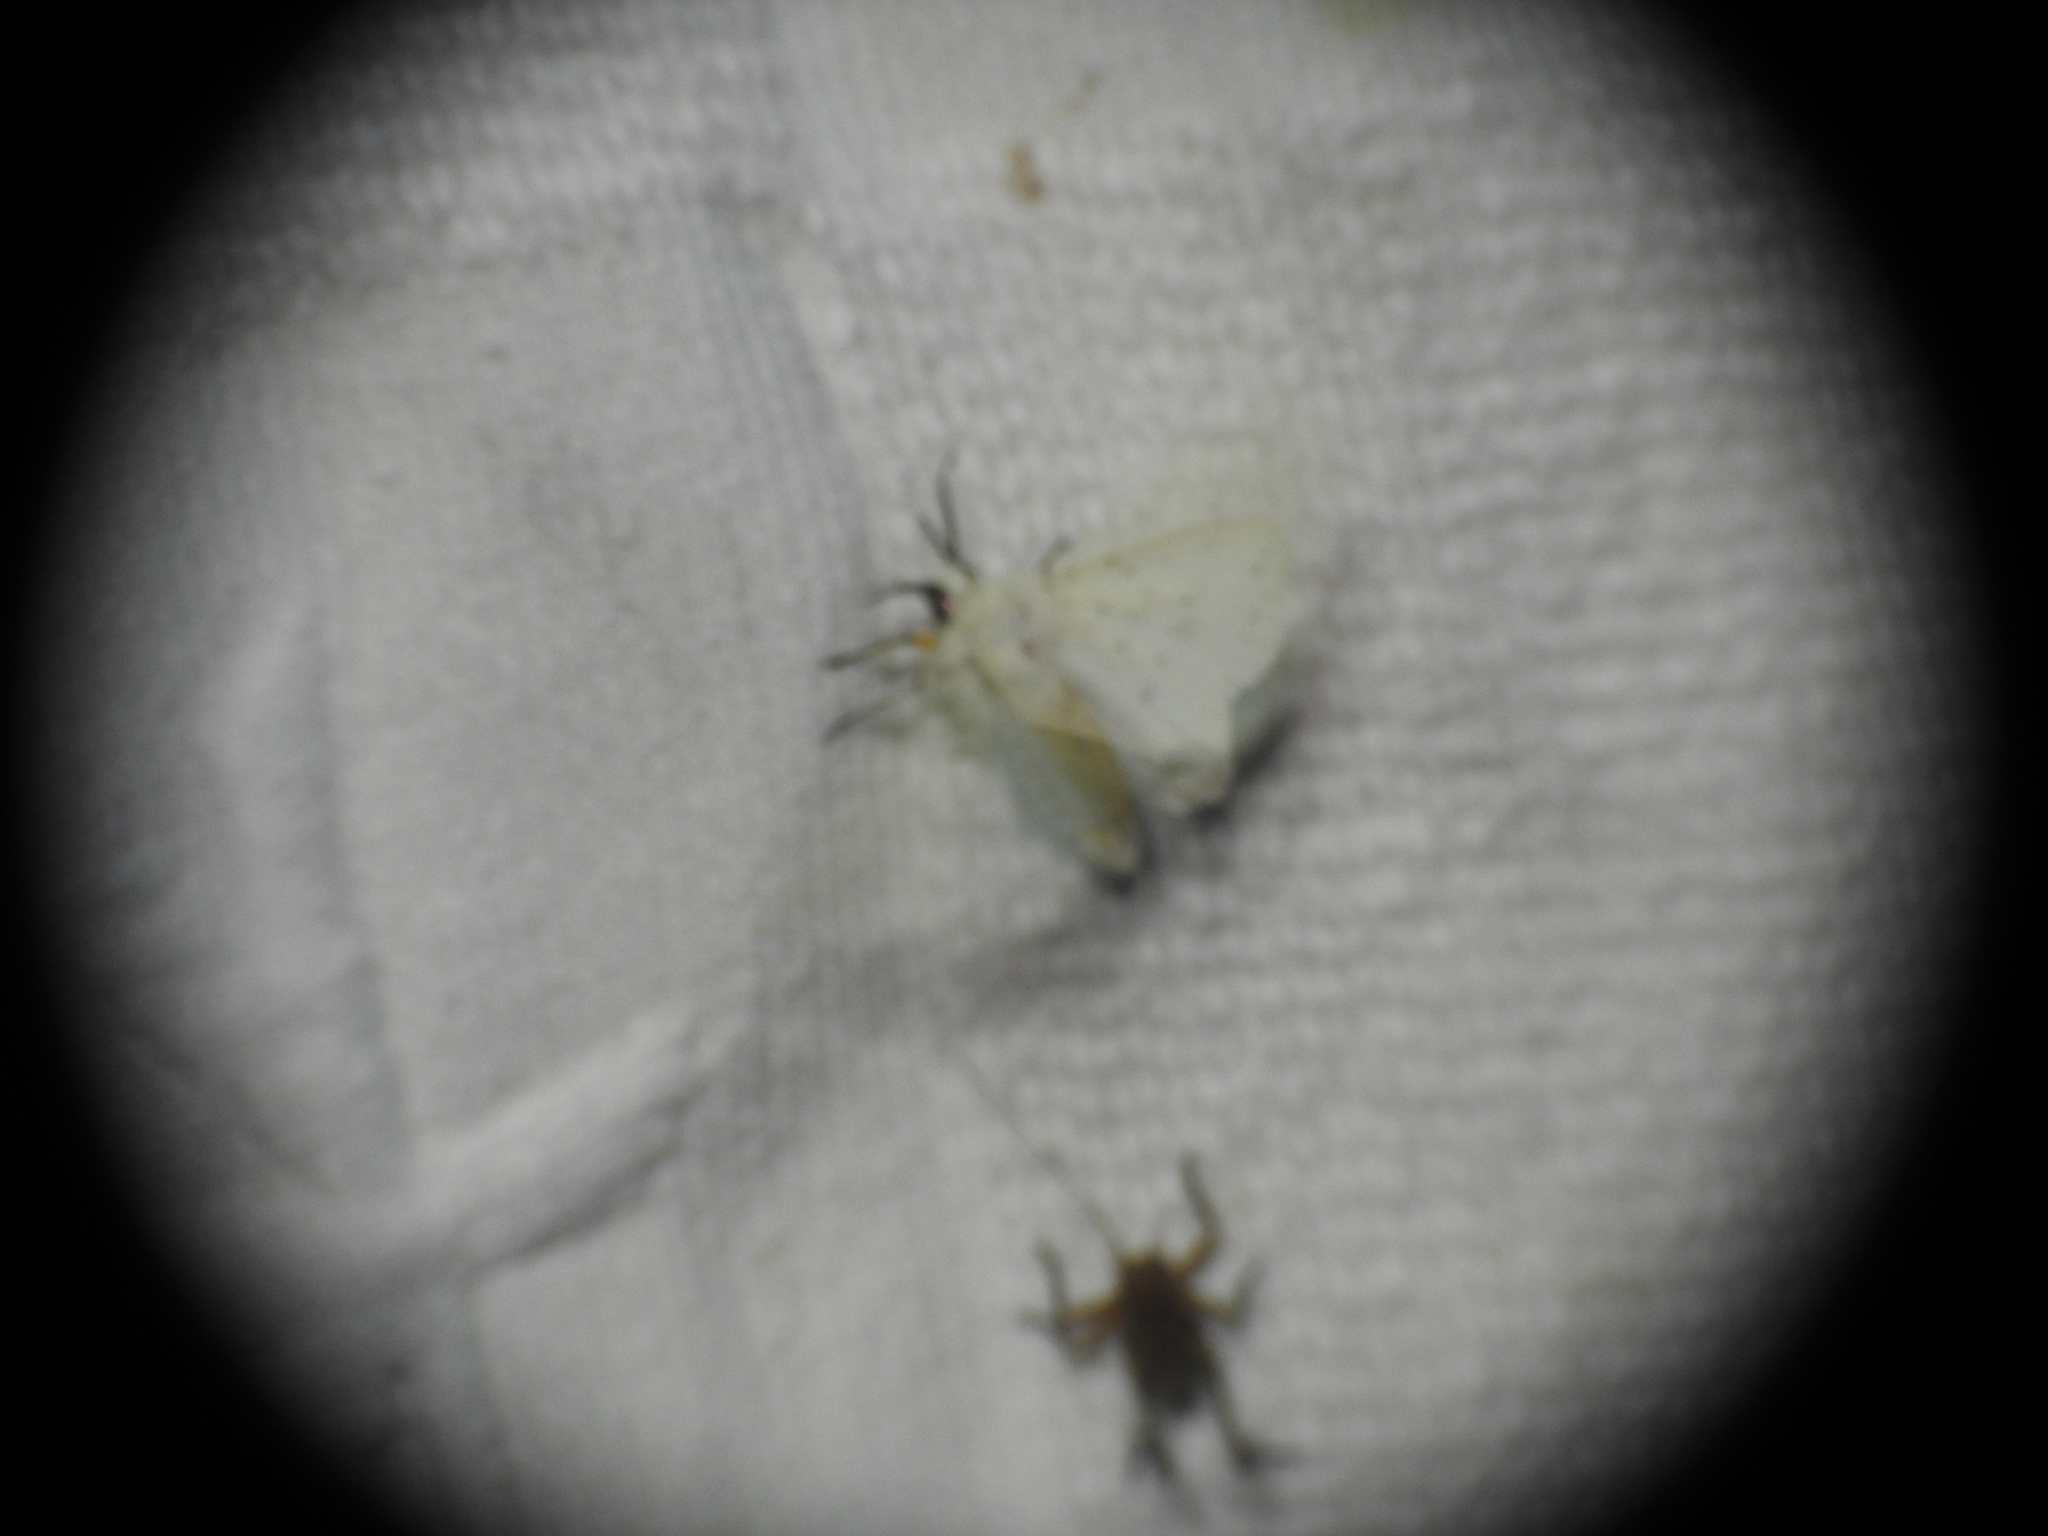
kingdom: Animalia
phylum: Arthropoda
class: Insecta
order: Lepidoptera
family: Erebidae
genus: Spilosoma
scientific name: Spilosoma lubricipeda
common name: White ermine
